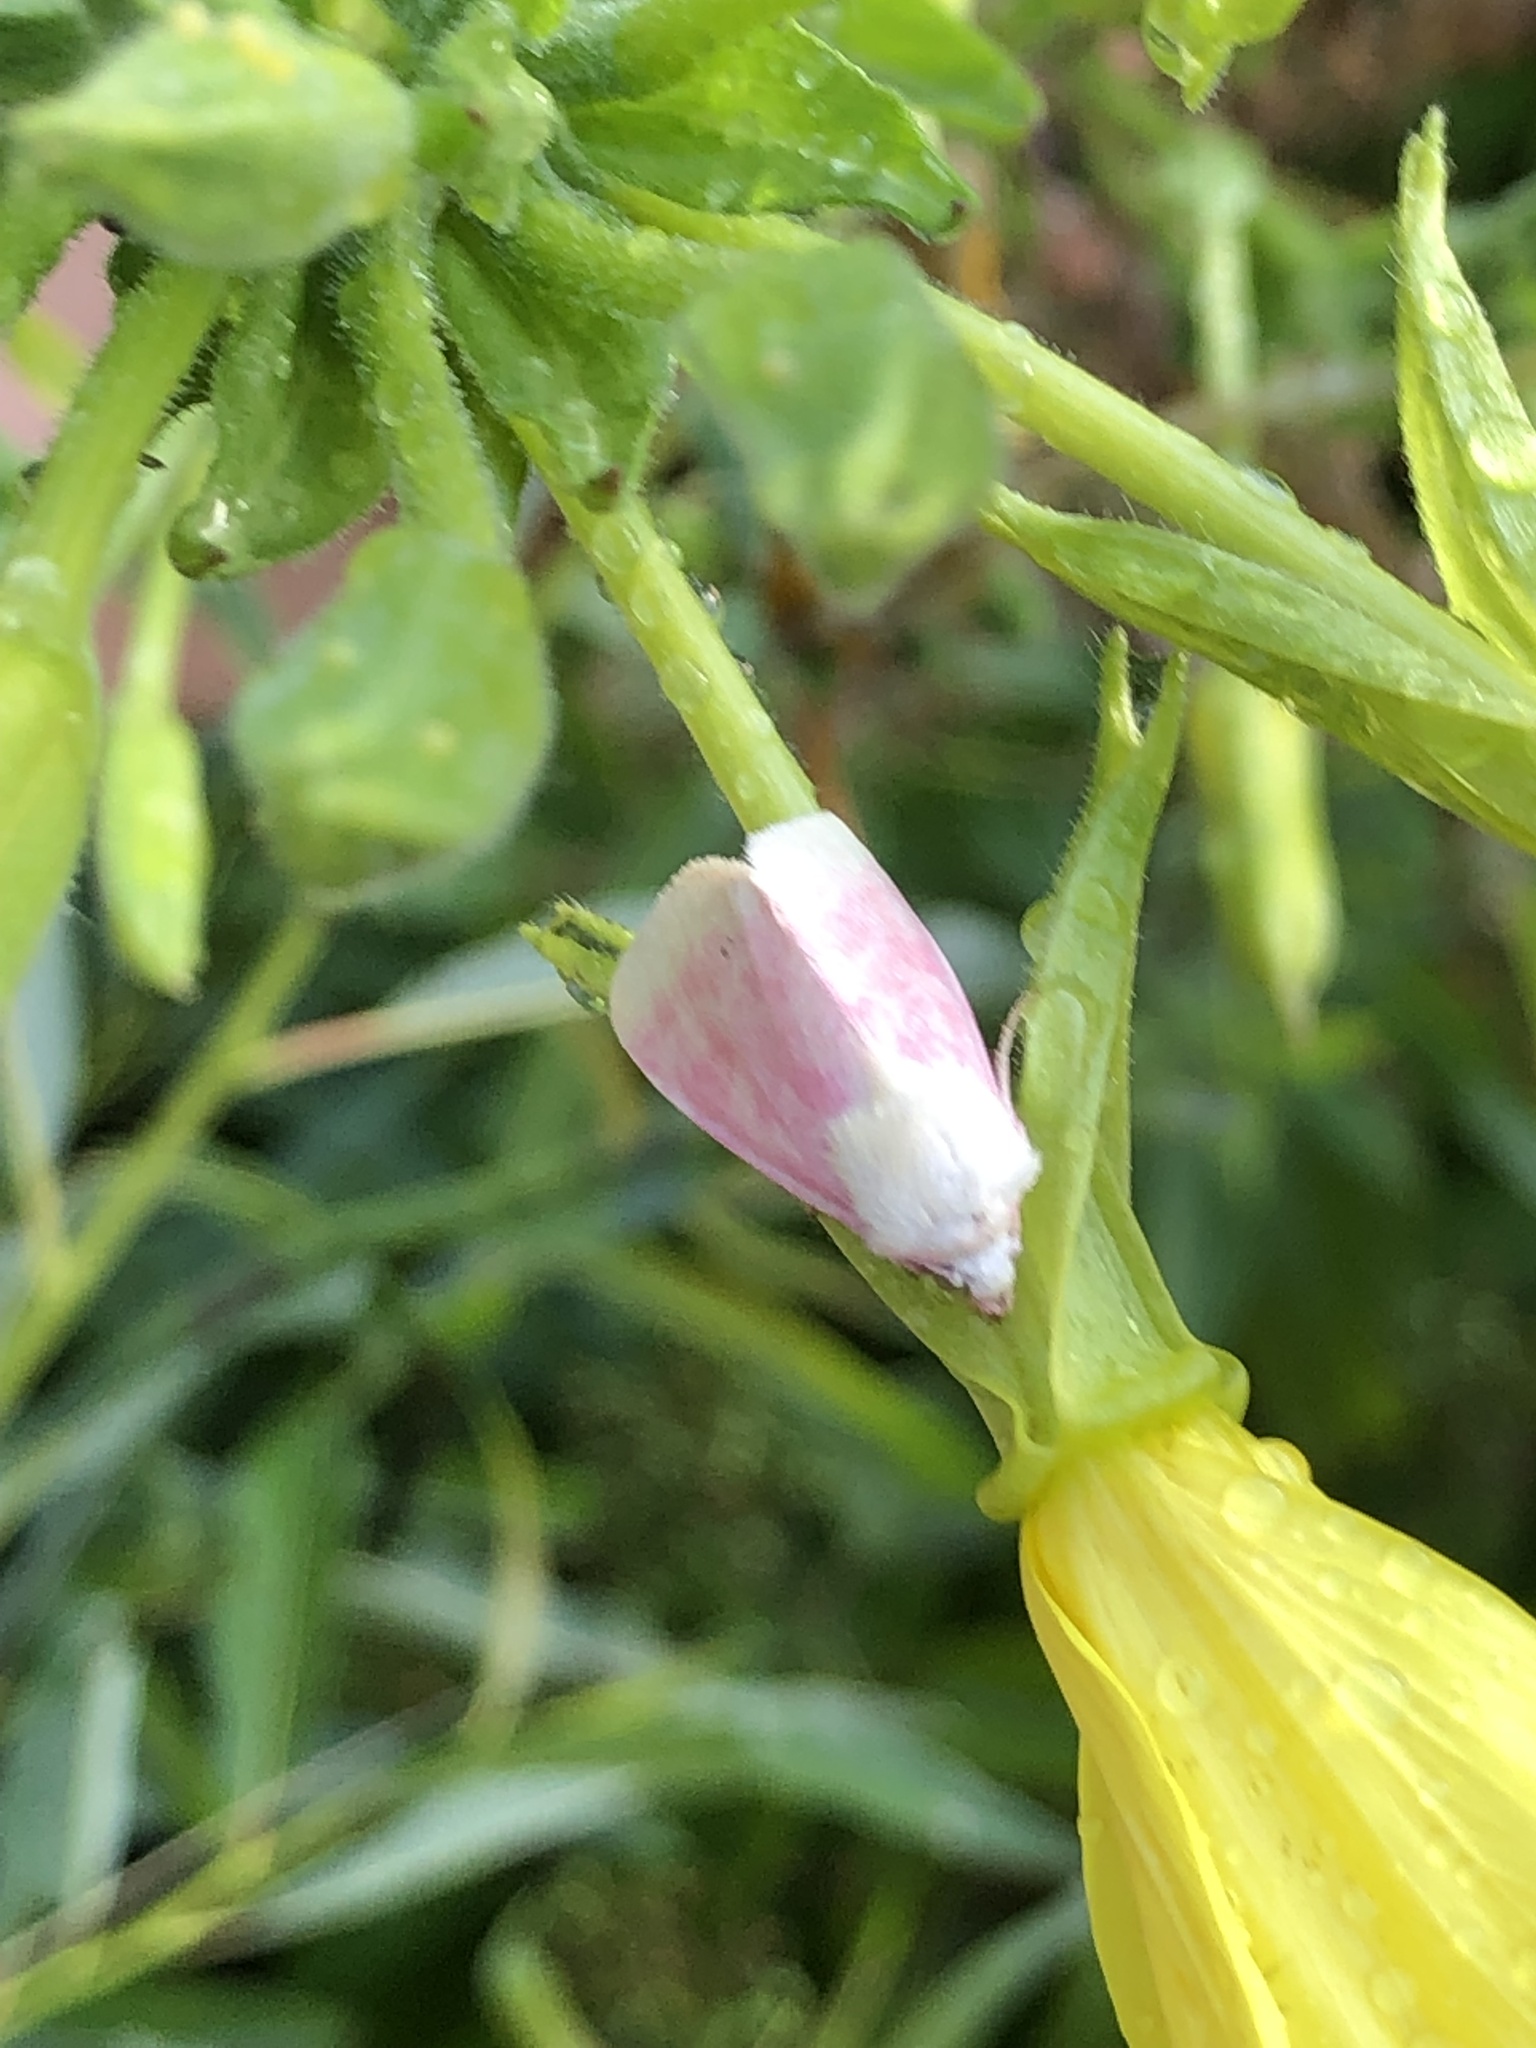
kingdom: Animalia
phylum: Arthropoda
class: Insecta
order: Lepidoptera
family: Noctuidae
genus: Schinia
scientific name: Schinia florida
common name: Primrose moth
